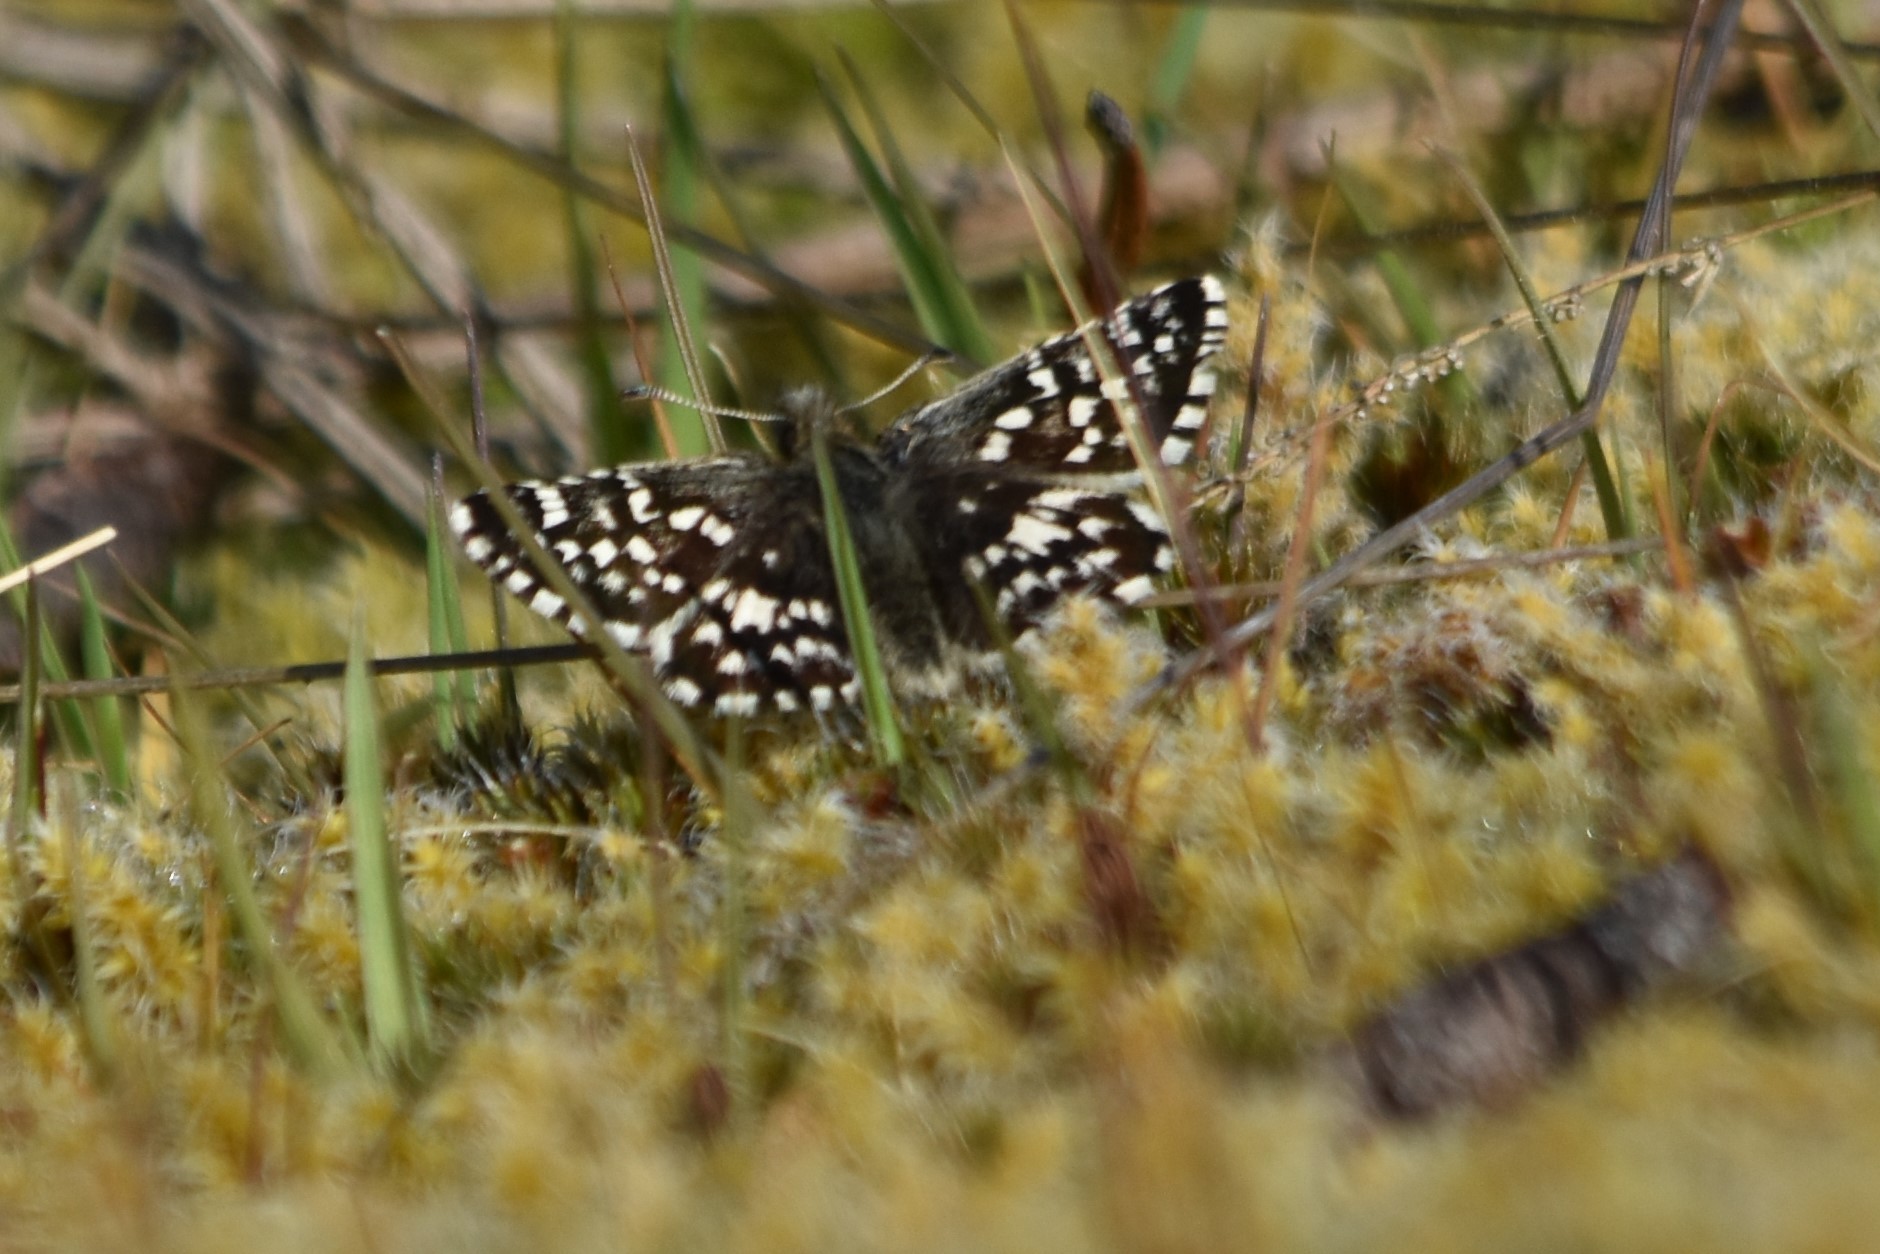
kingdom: Animalia
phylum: Arthropoda
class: Insecta
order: Lepidoptera
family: Hesperiidae
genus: Pyrgus
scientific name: Pyrgus ruralis
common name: Two-banded checkered-skipper
